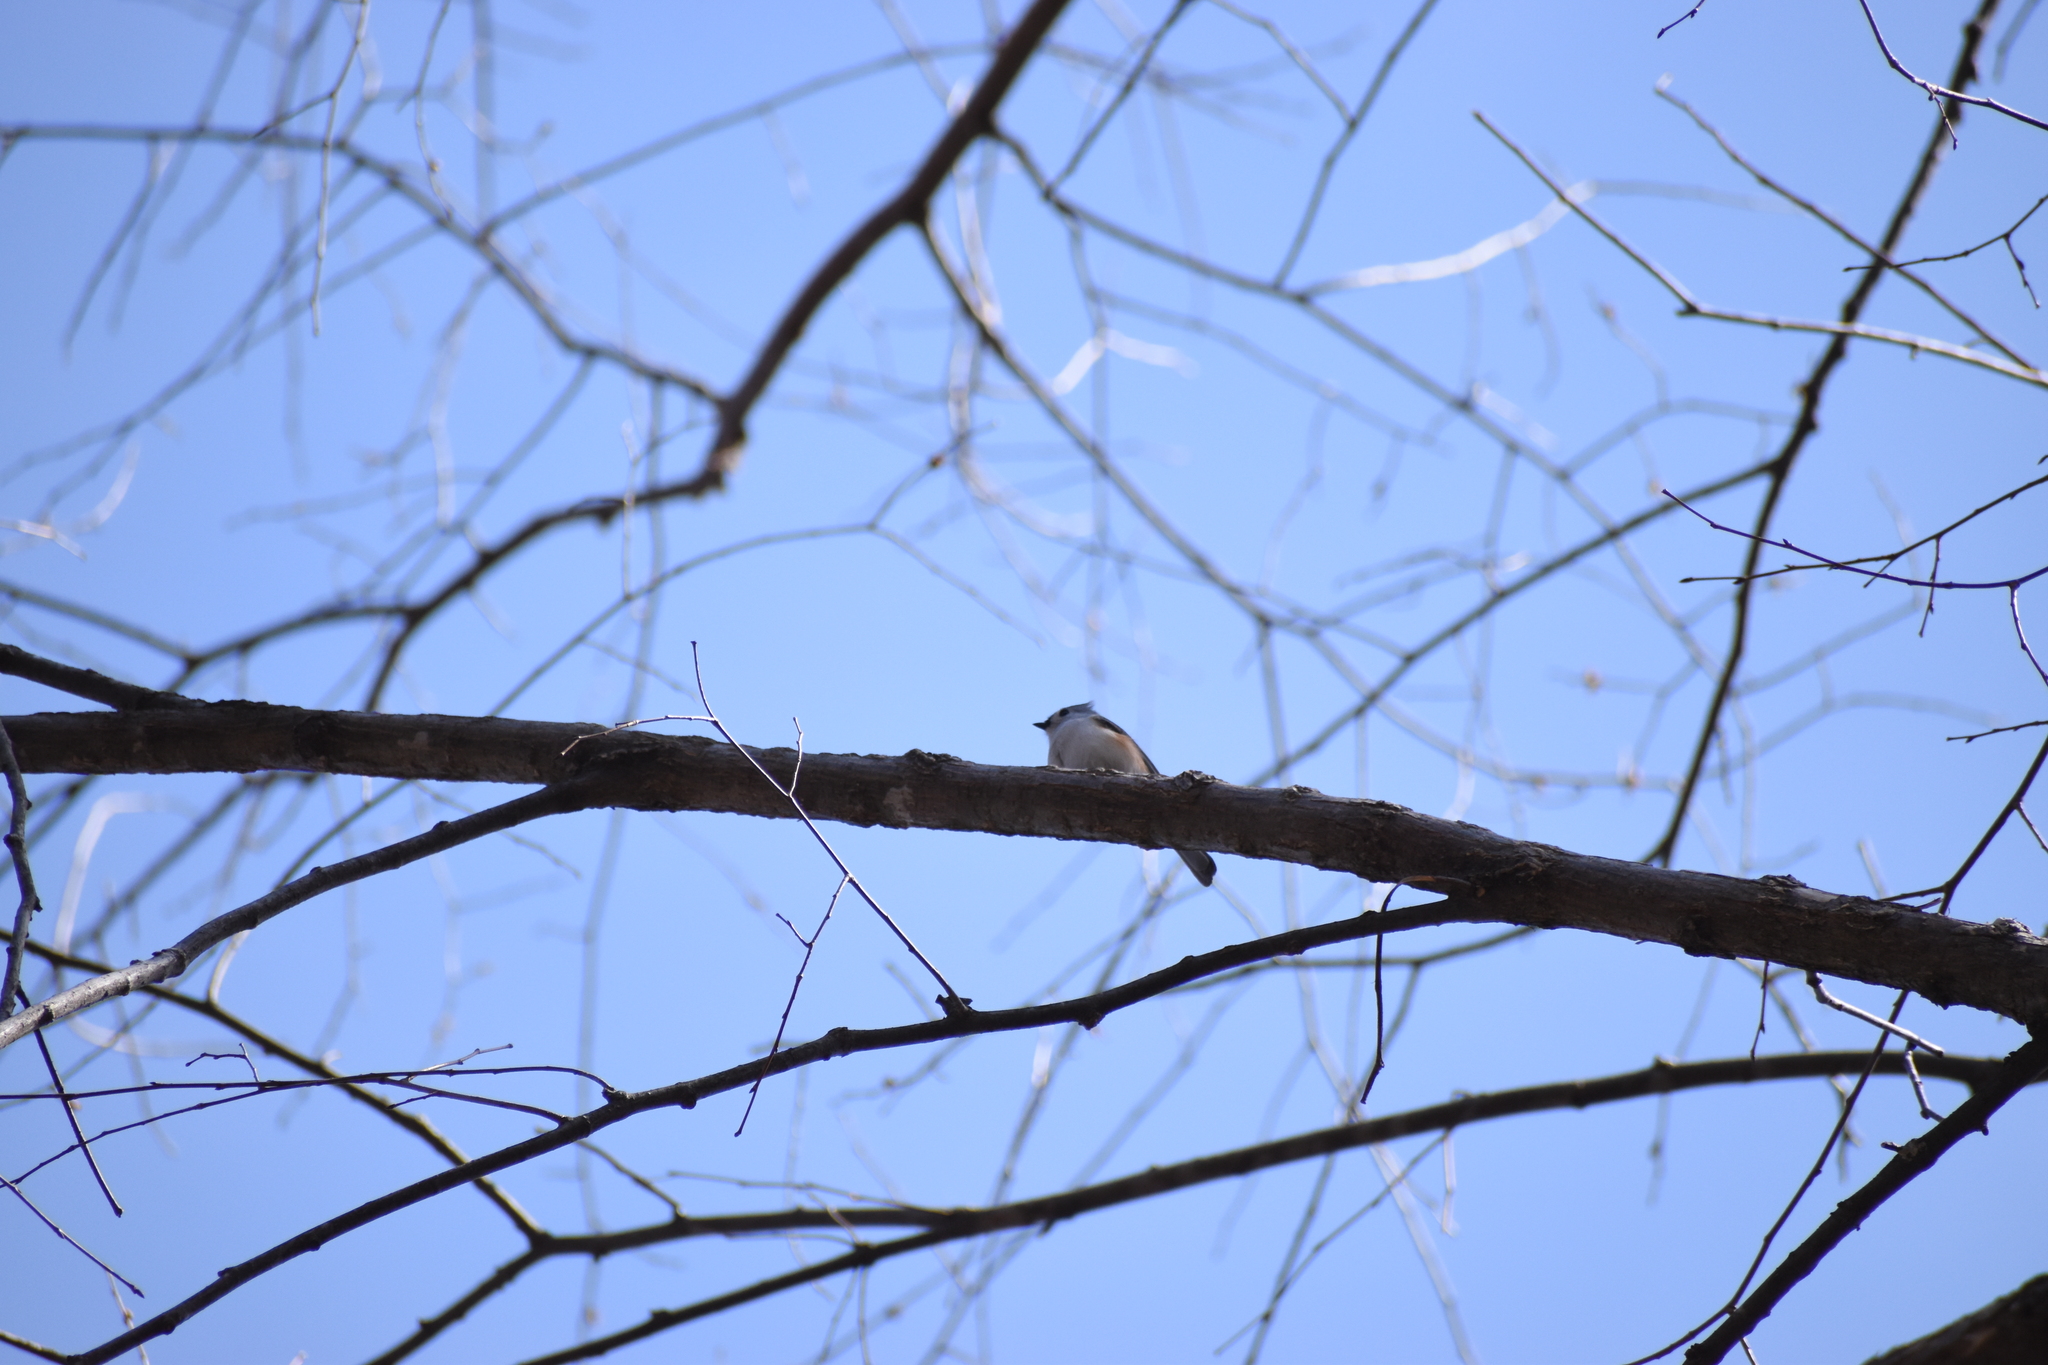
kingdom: Animalia
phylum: Chordata
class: Aves
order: Passeriformes
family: Paridae
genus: Baeolophus
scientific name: Baeolophus bicolor
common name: Tufted titmouse
